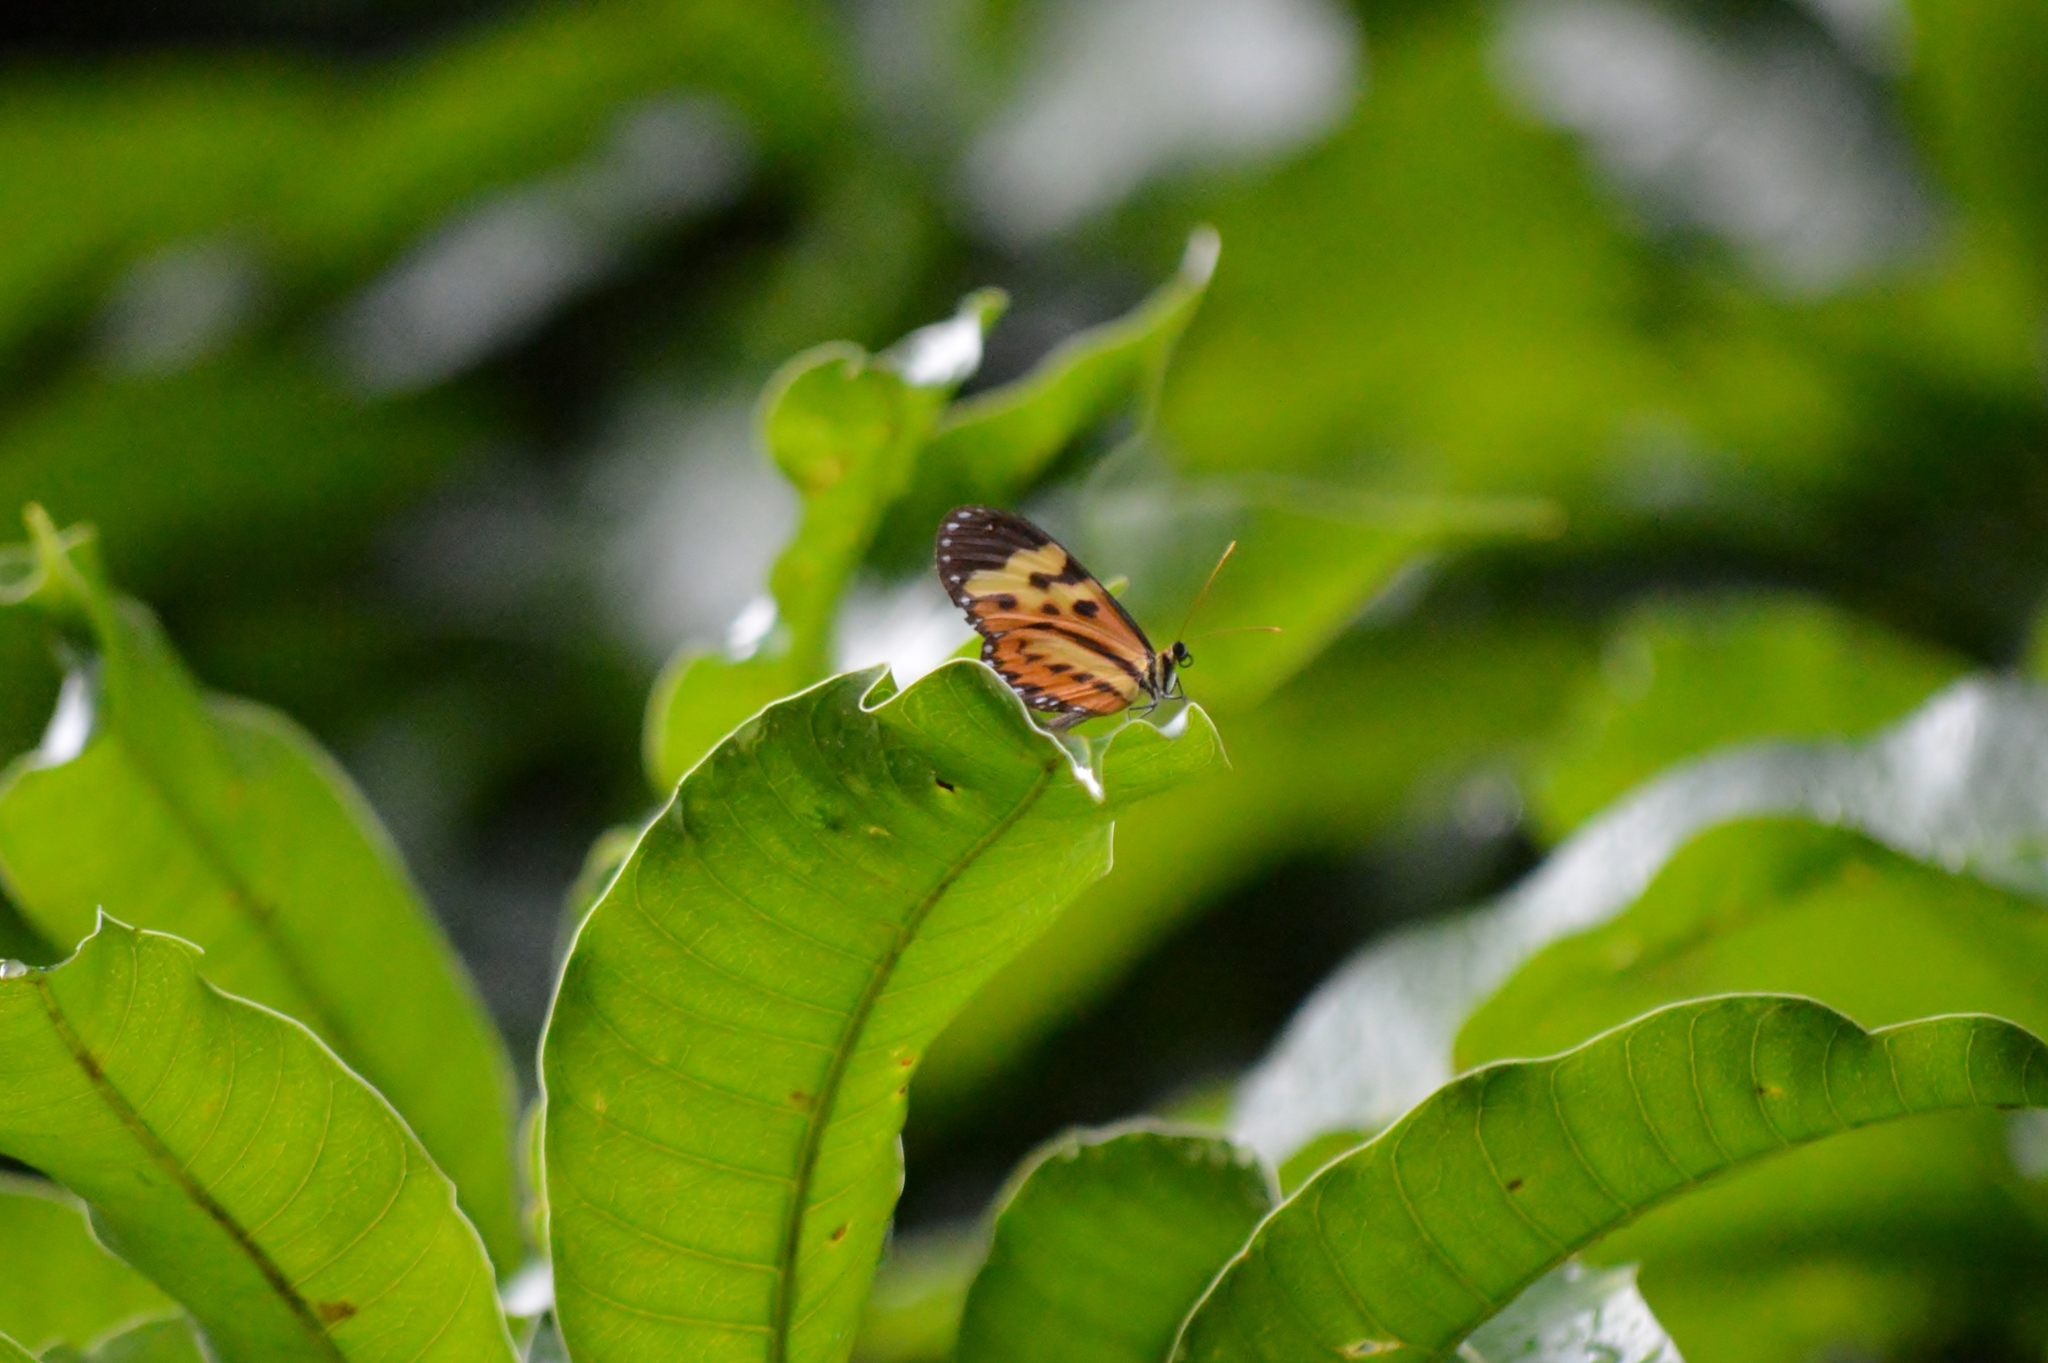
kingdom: Animalia
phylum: Arthropoda
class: Insecta
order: Lepidoptera
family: Nymphalidae
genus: Mechanitis
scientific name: Mechanitis polymnia
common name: Disturbed tigerwing
